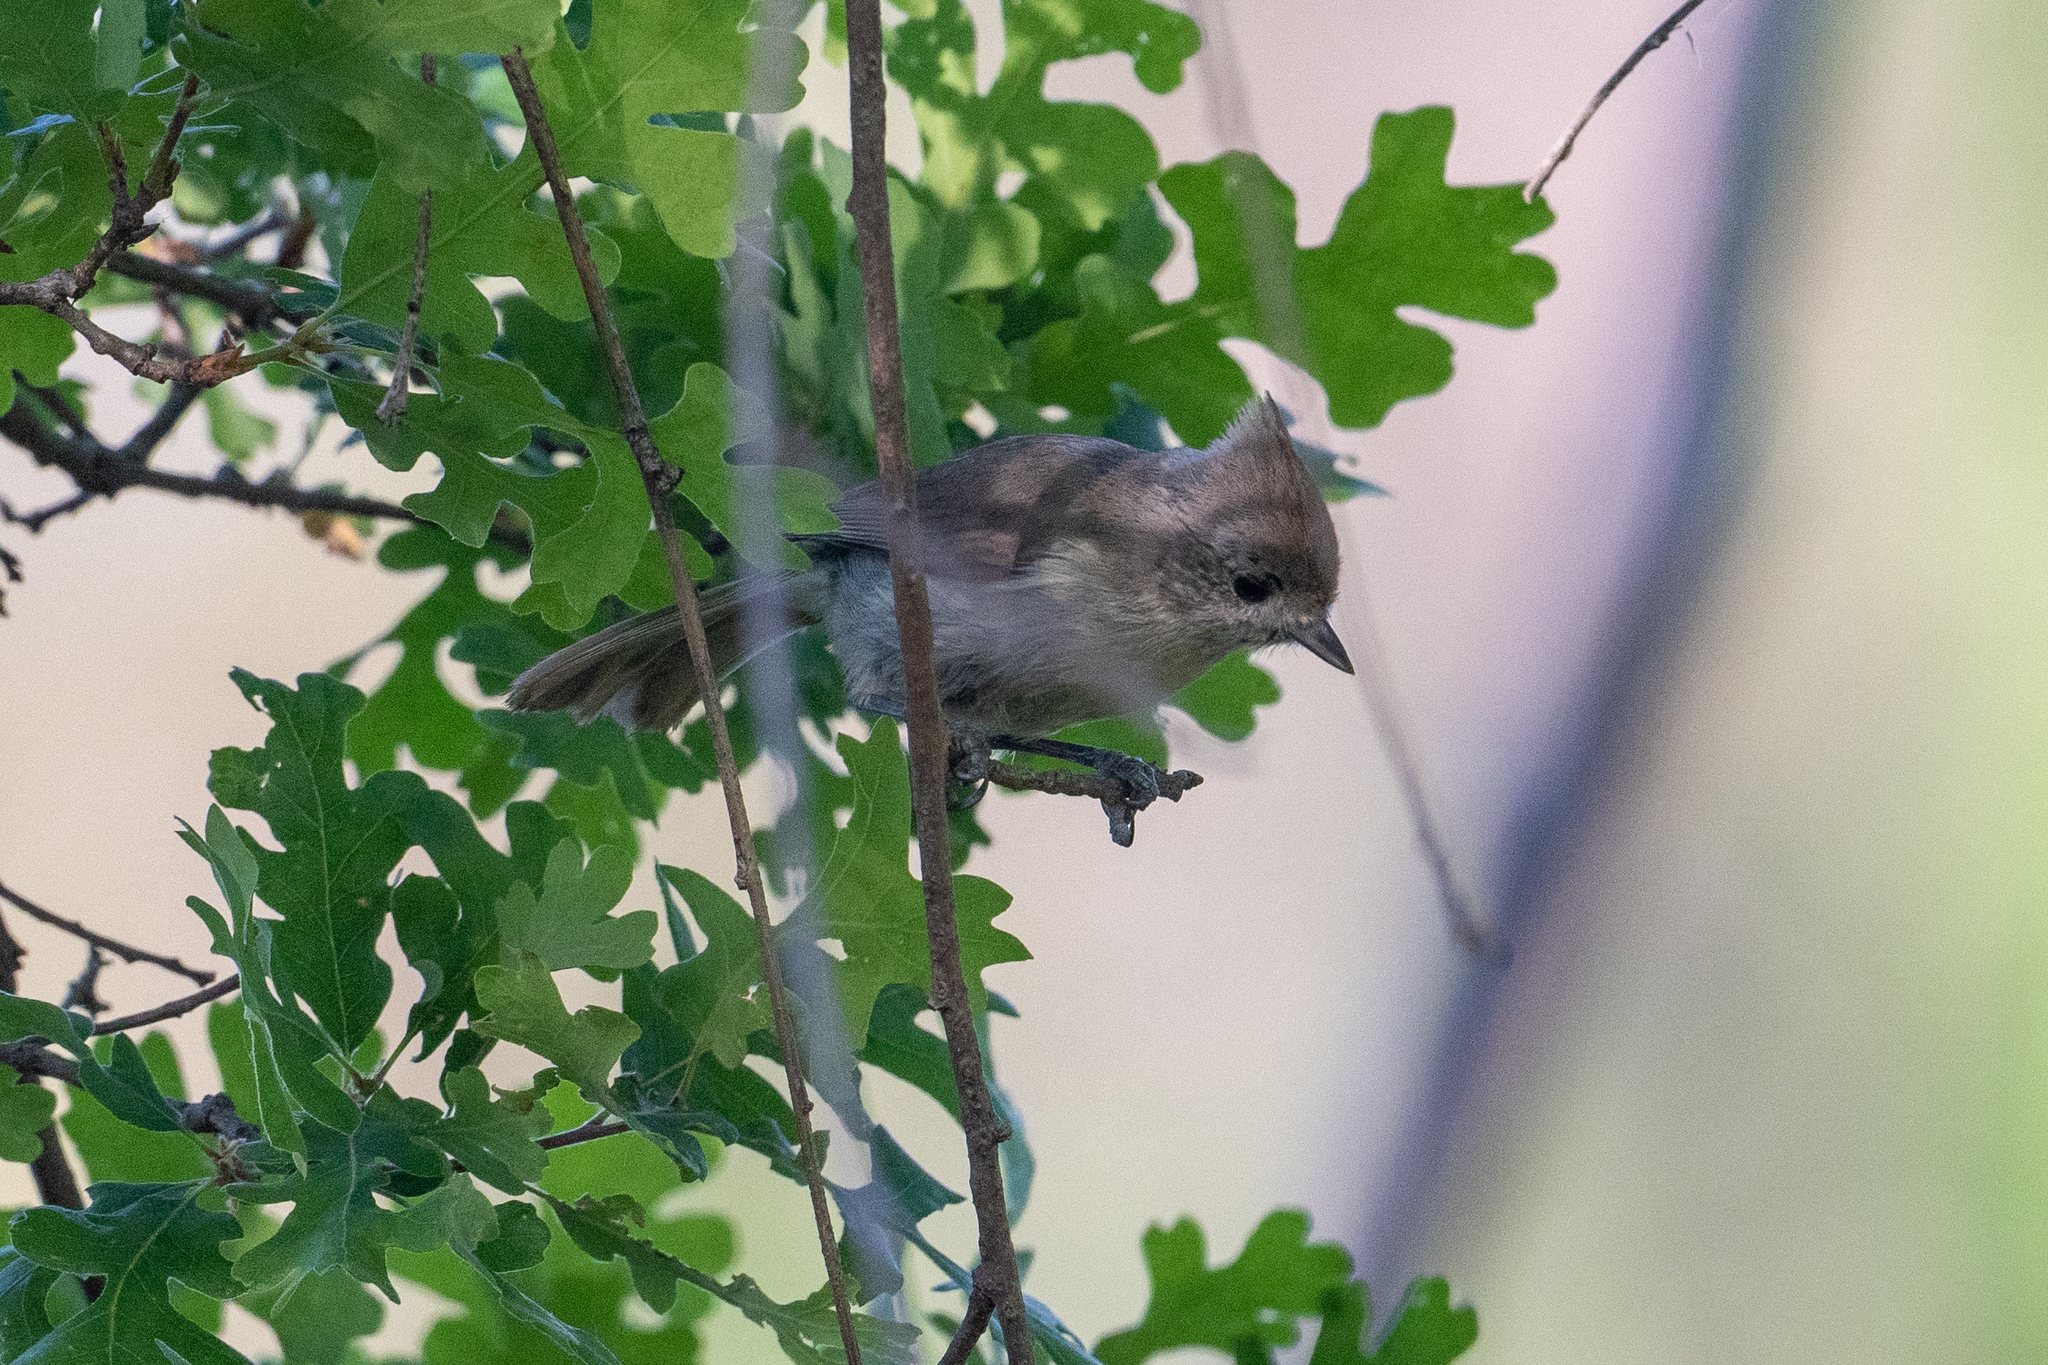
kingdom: Animalia
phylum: Chordata
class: Aves
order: Passeriformes
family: Paridae
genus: Baeolophus
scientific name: Baeolophus inornatus
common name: Oak titmouse
